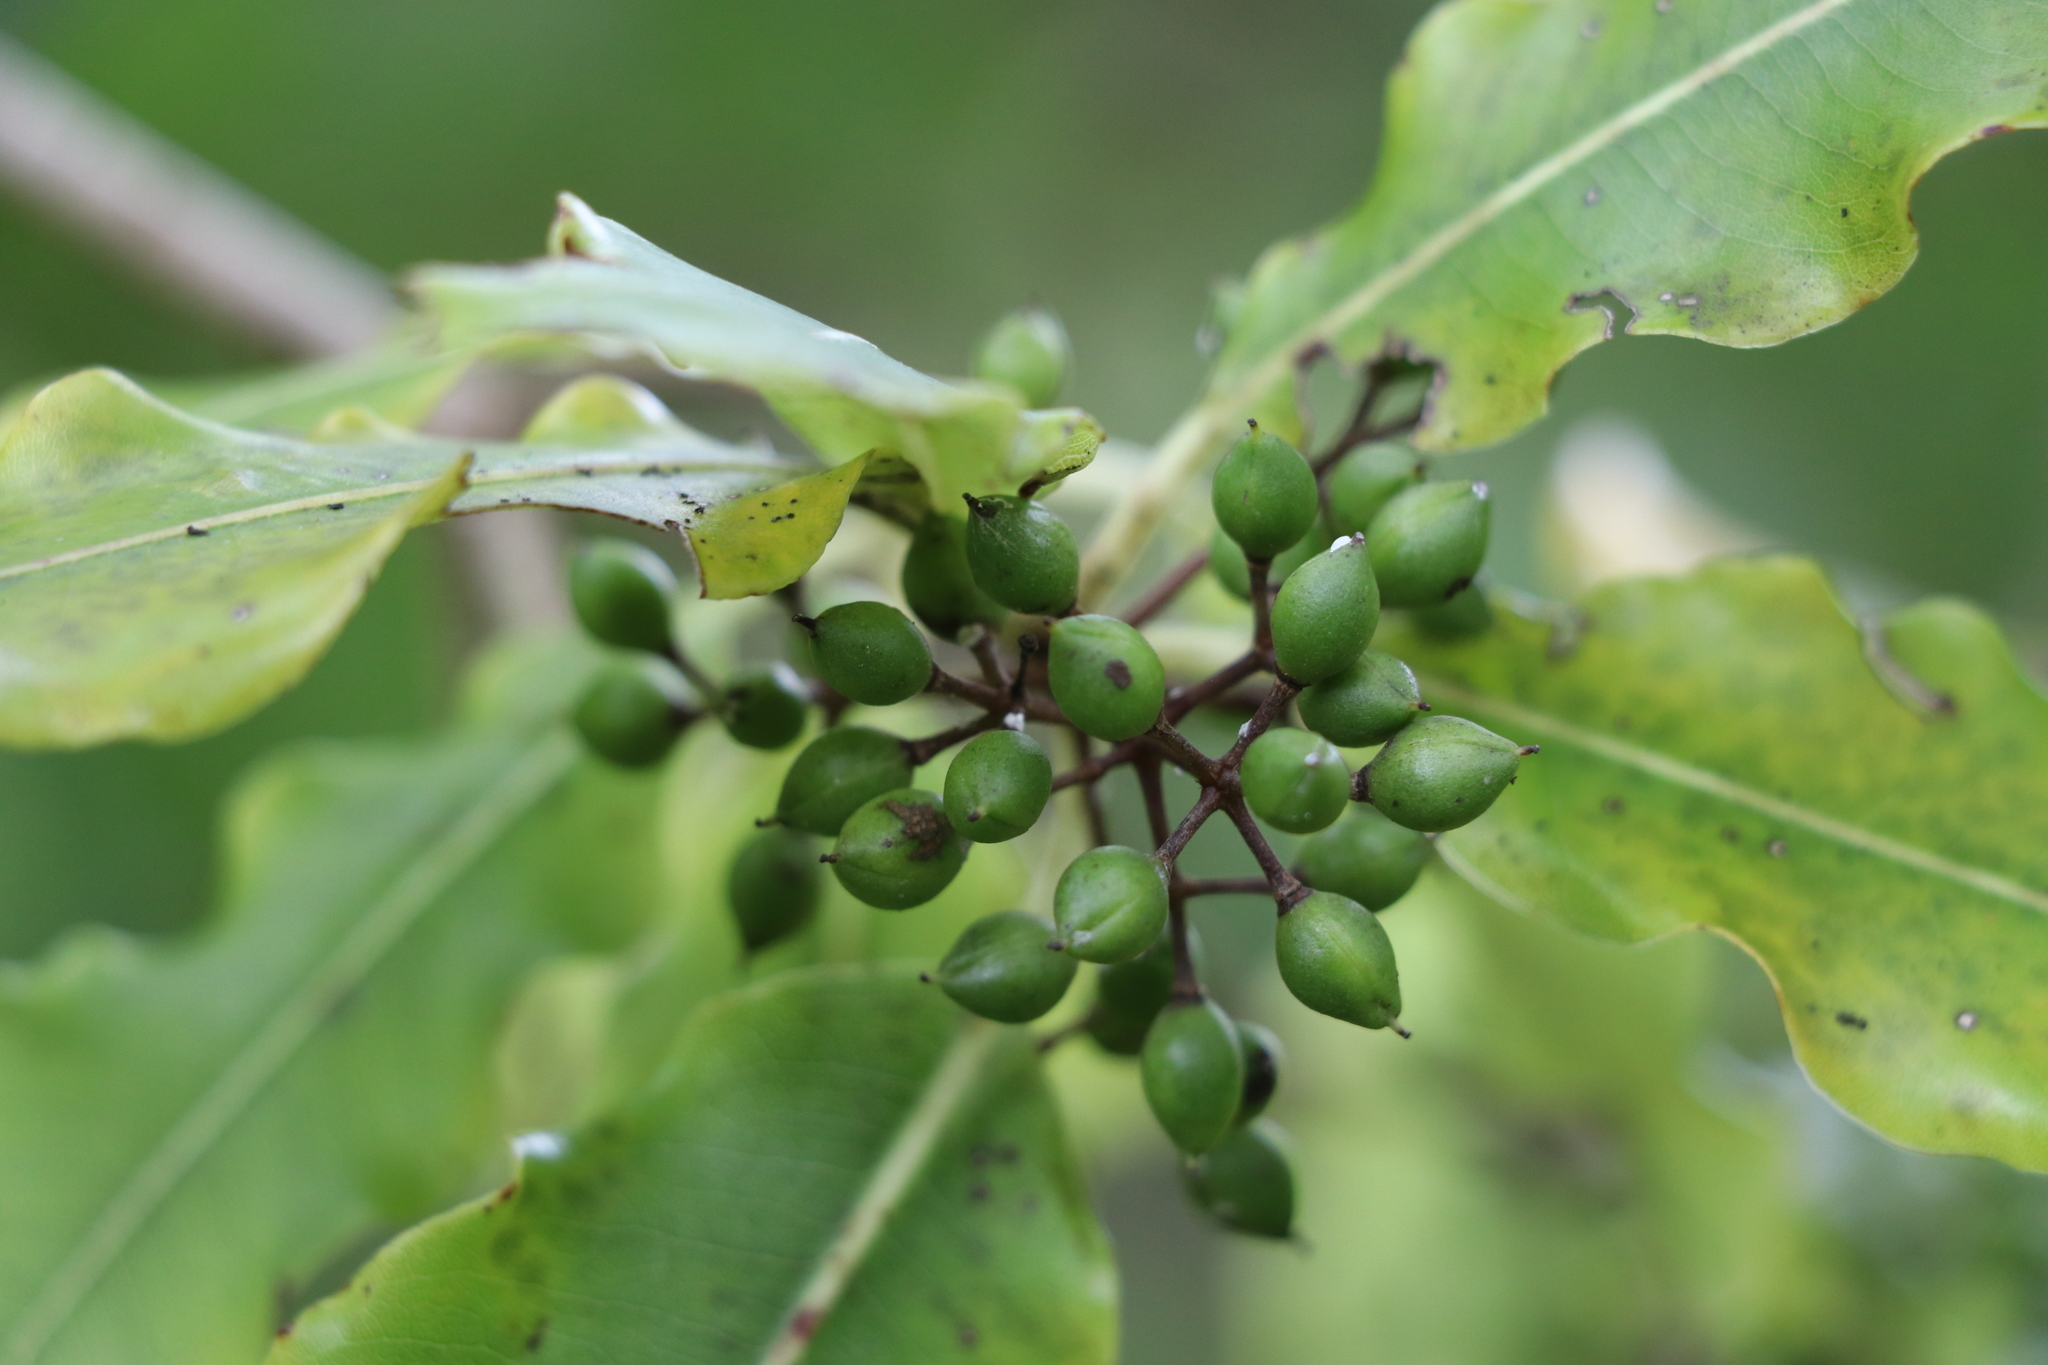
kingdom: Plantae
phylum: Tracheophyta
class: Magnoliopsida
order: Apiales
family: Pittosporaceae
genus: Pittosporum
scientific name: Pittosporum eugenioides
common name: Lemonwood
